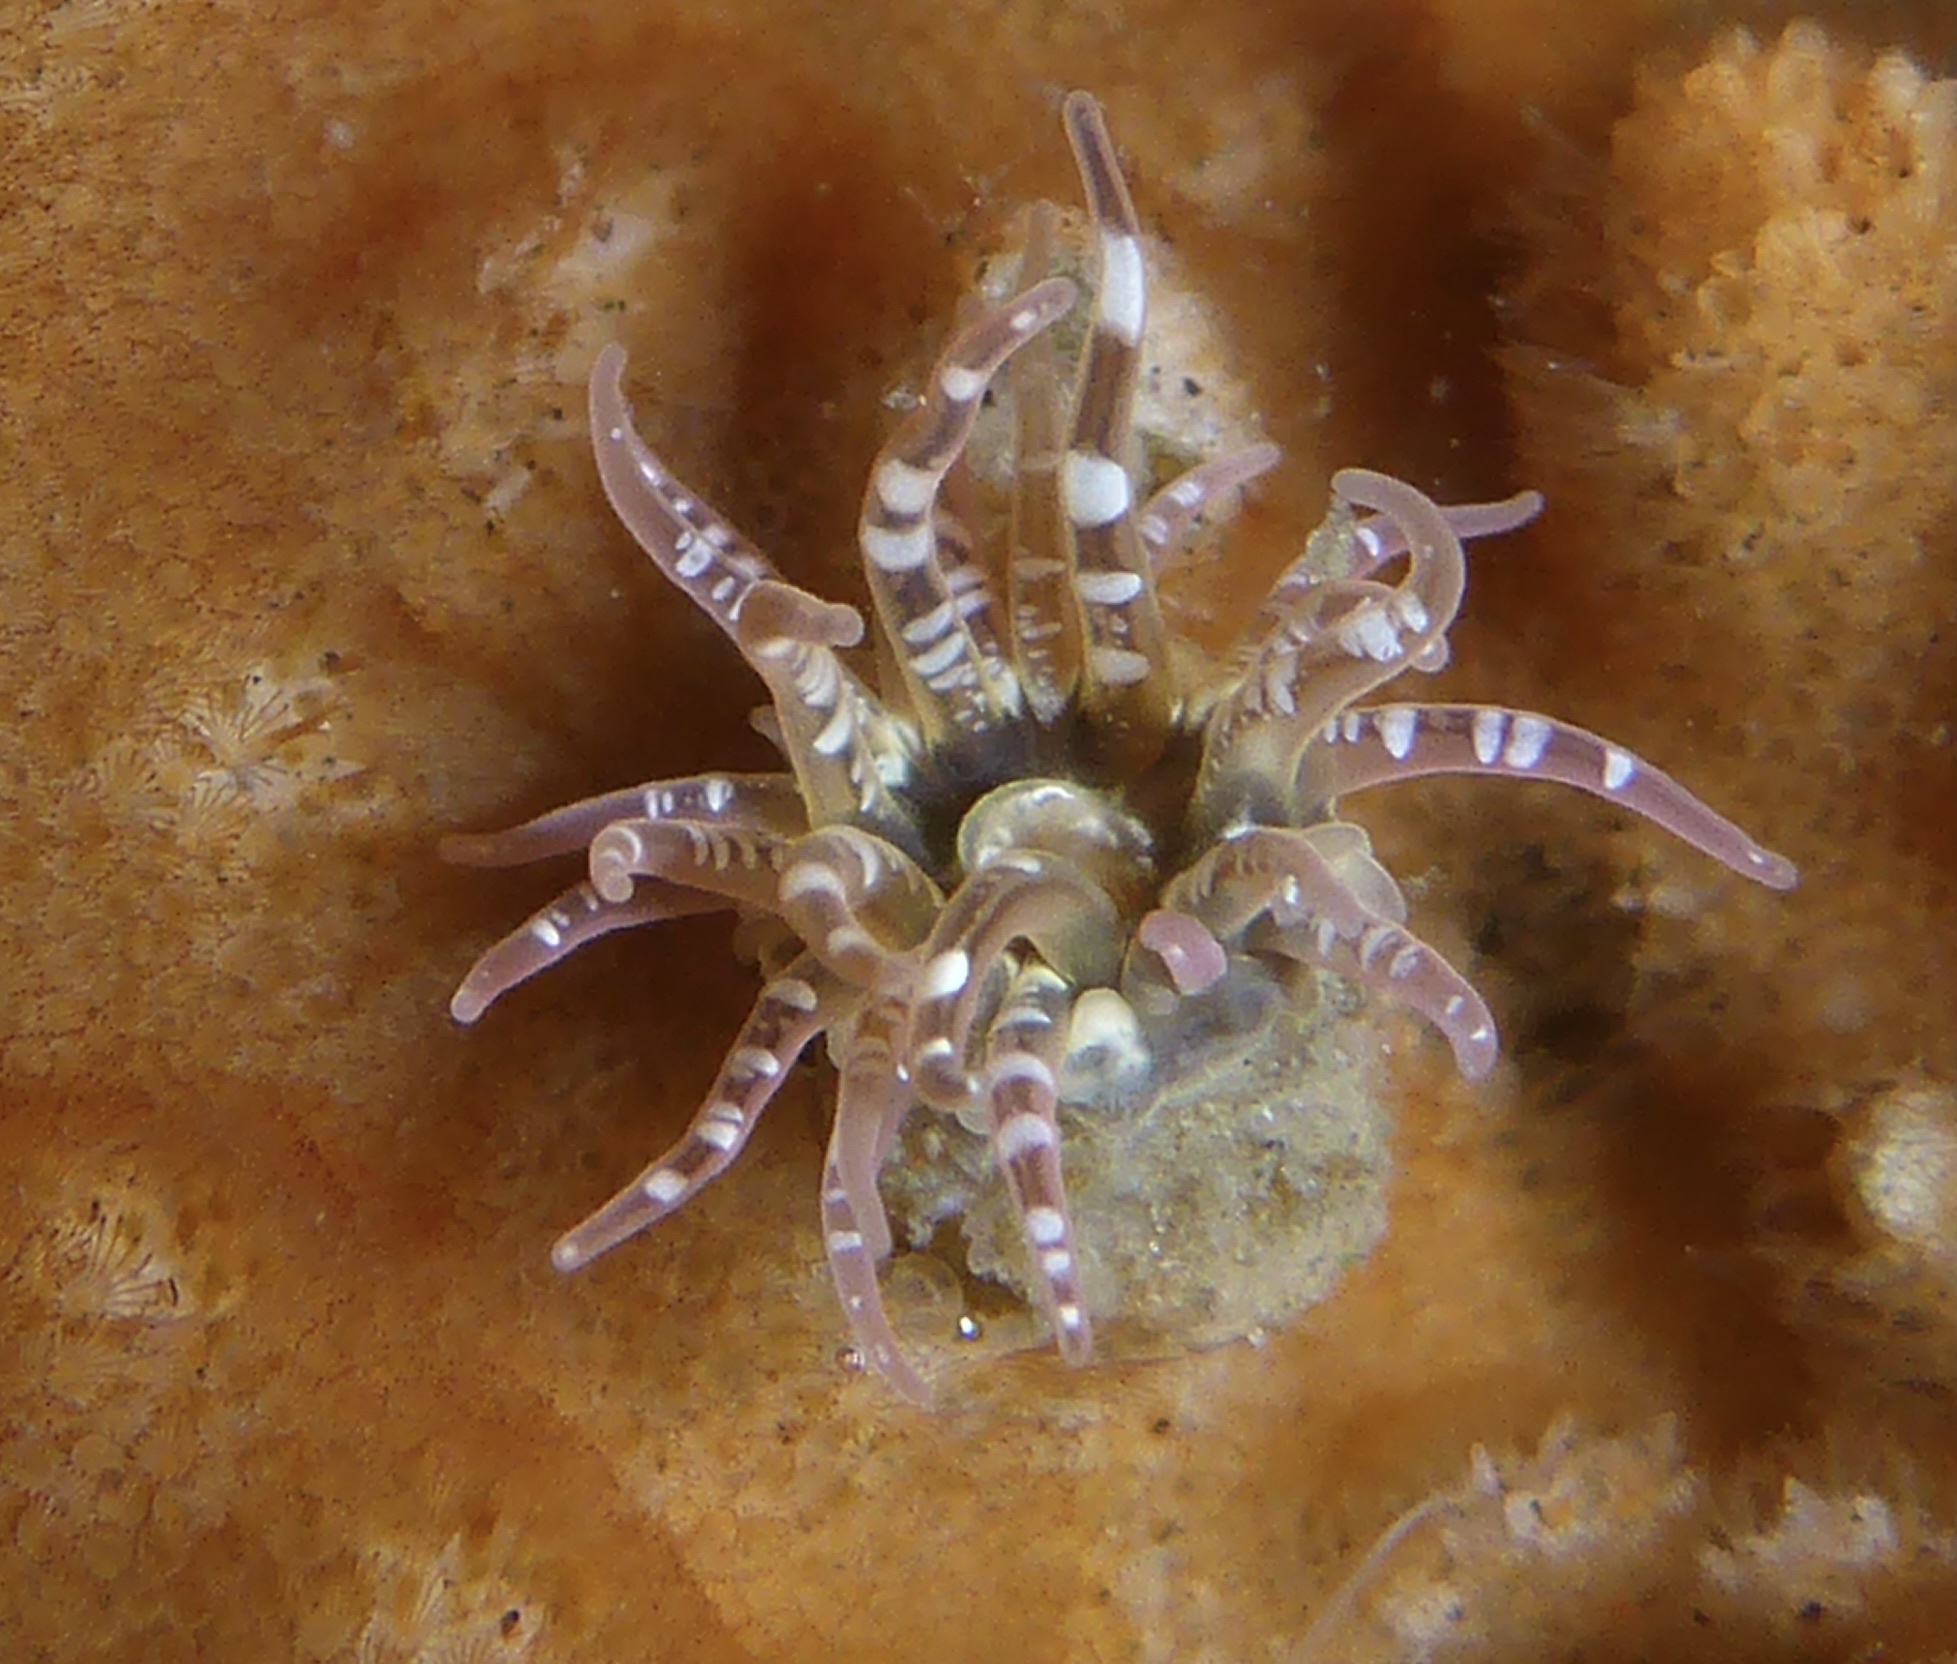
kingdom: Animalia
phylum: Cnidaria
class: Anthozoa
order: Actiniaria
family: Actiniidae
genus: Anthopleura
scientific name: Anthopleura artemisia
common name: Buried sea anemone
